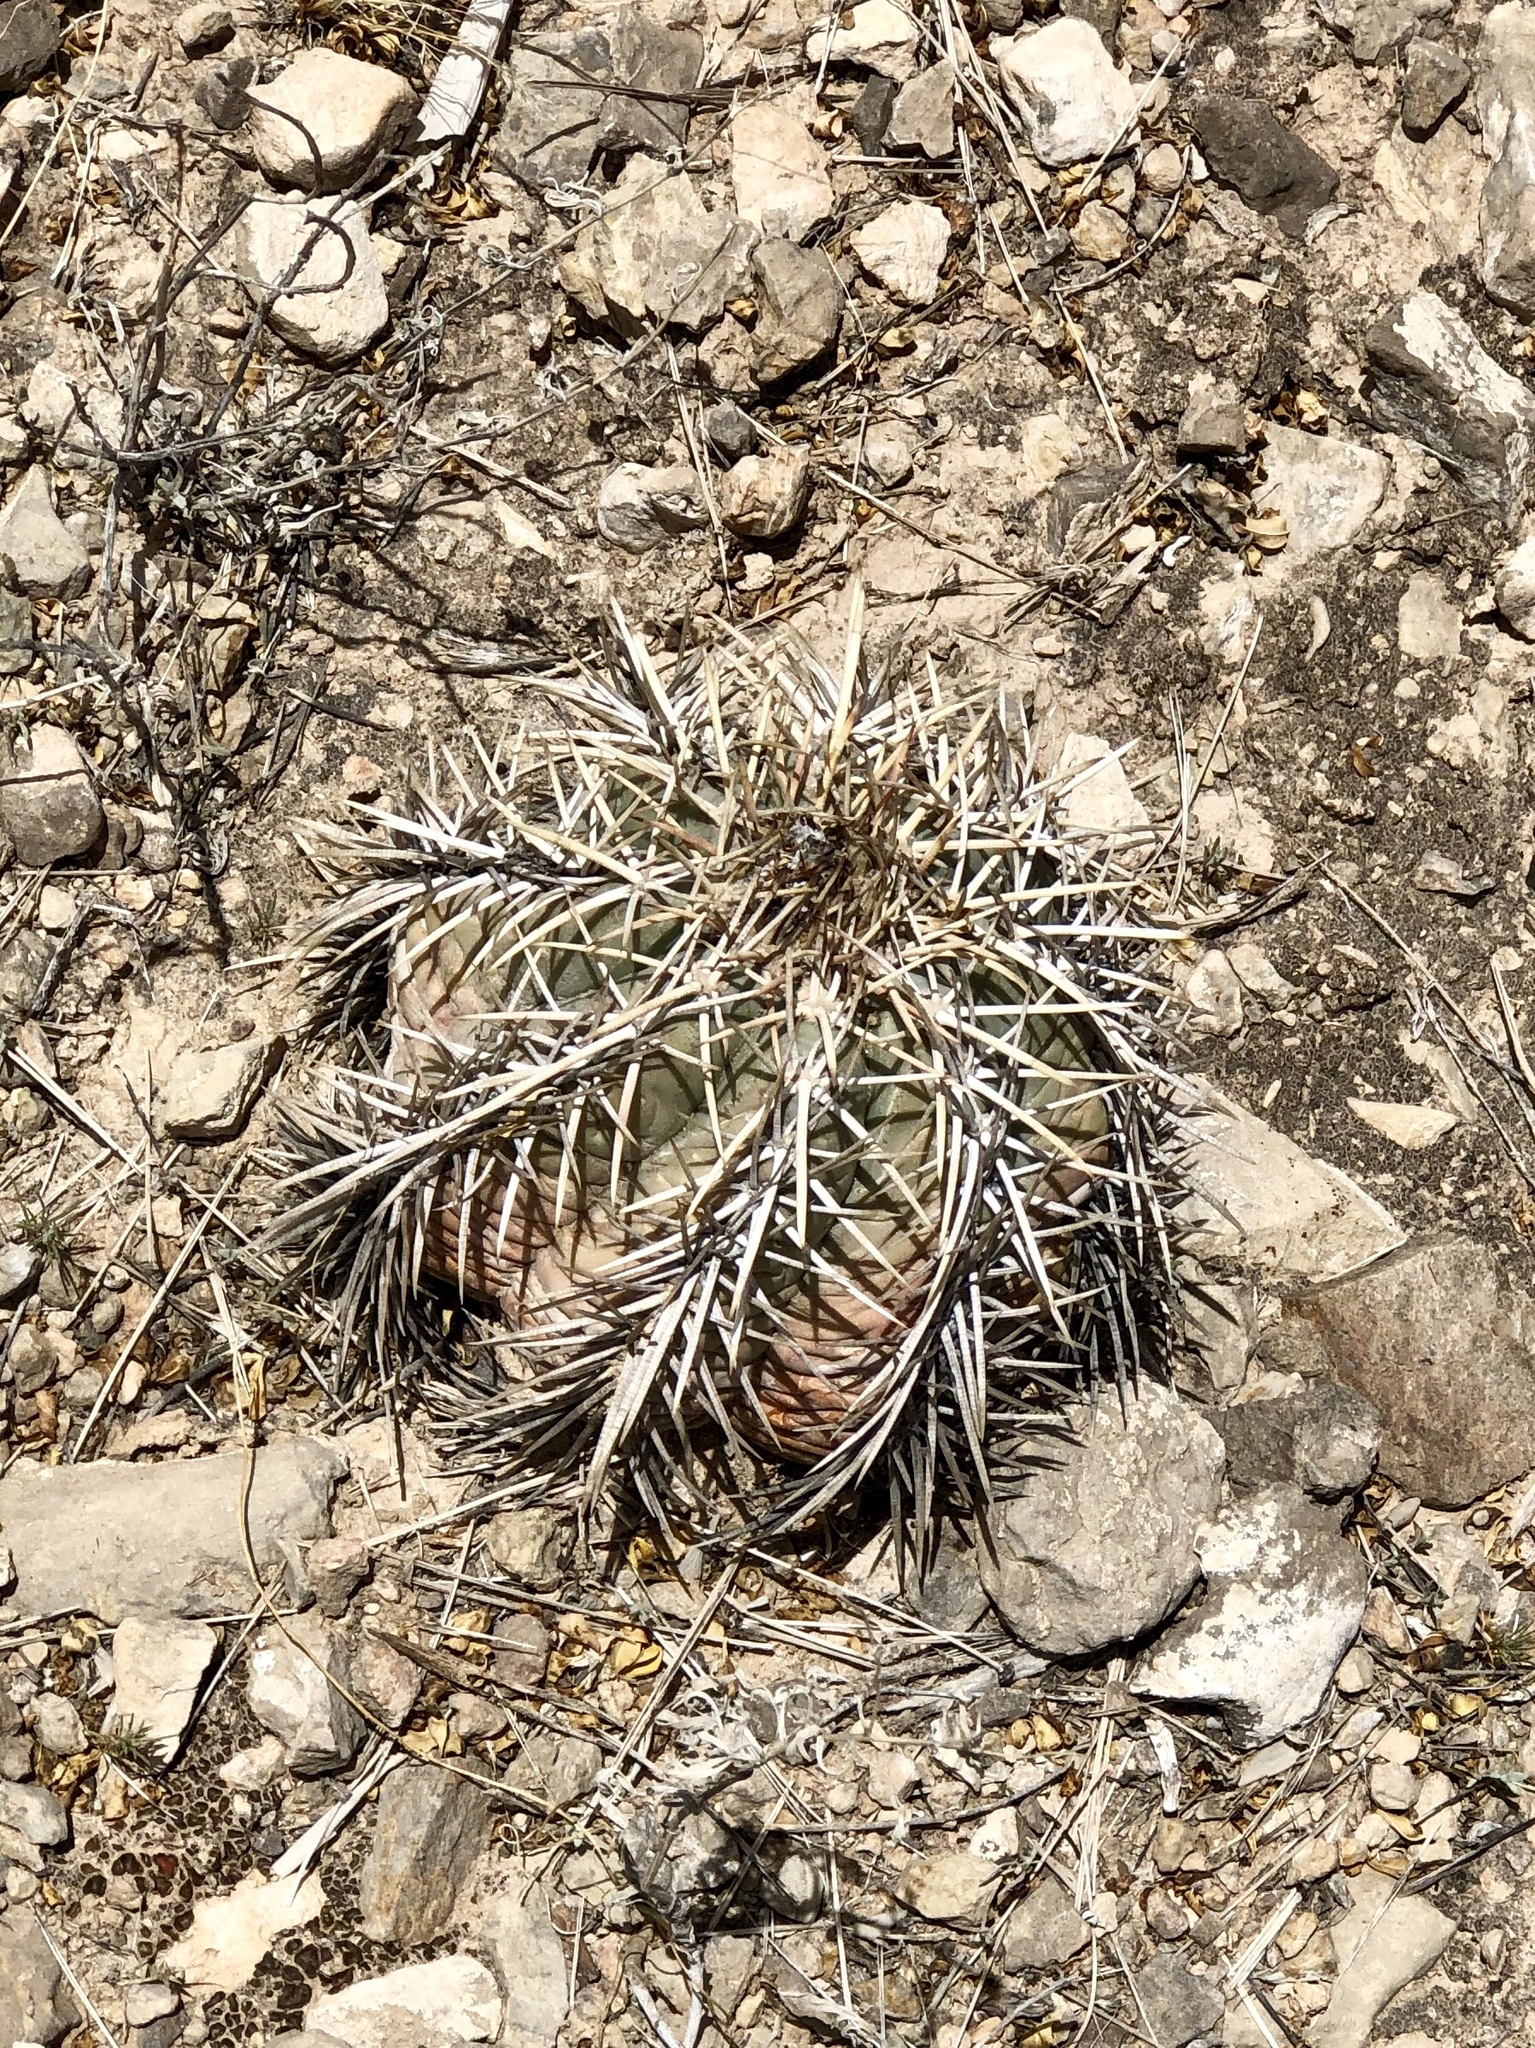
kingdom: Plantae
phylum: Tracheophyta
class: Magnoliopsida
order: Caryophyllales
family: Cactaceae
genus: Echinocactus
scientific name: Echinocactus horizonthalonius
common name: Devilshead
